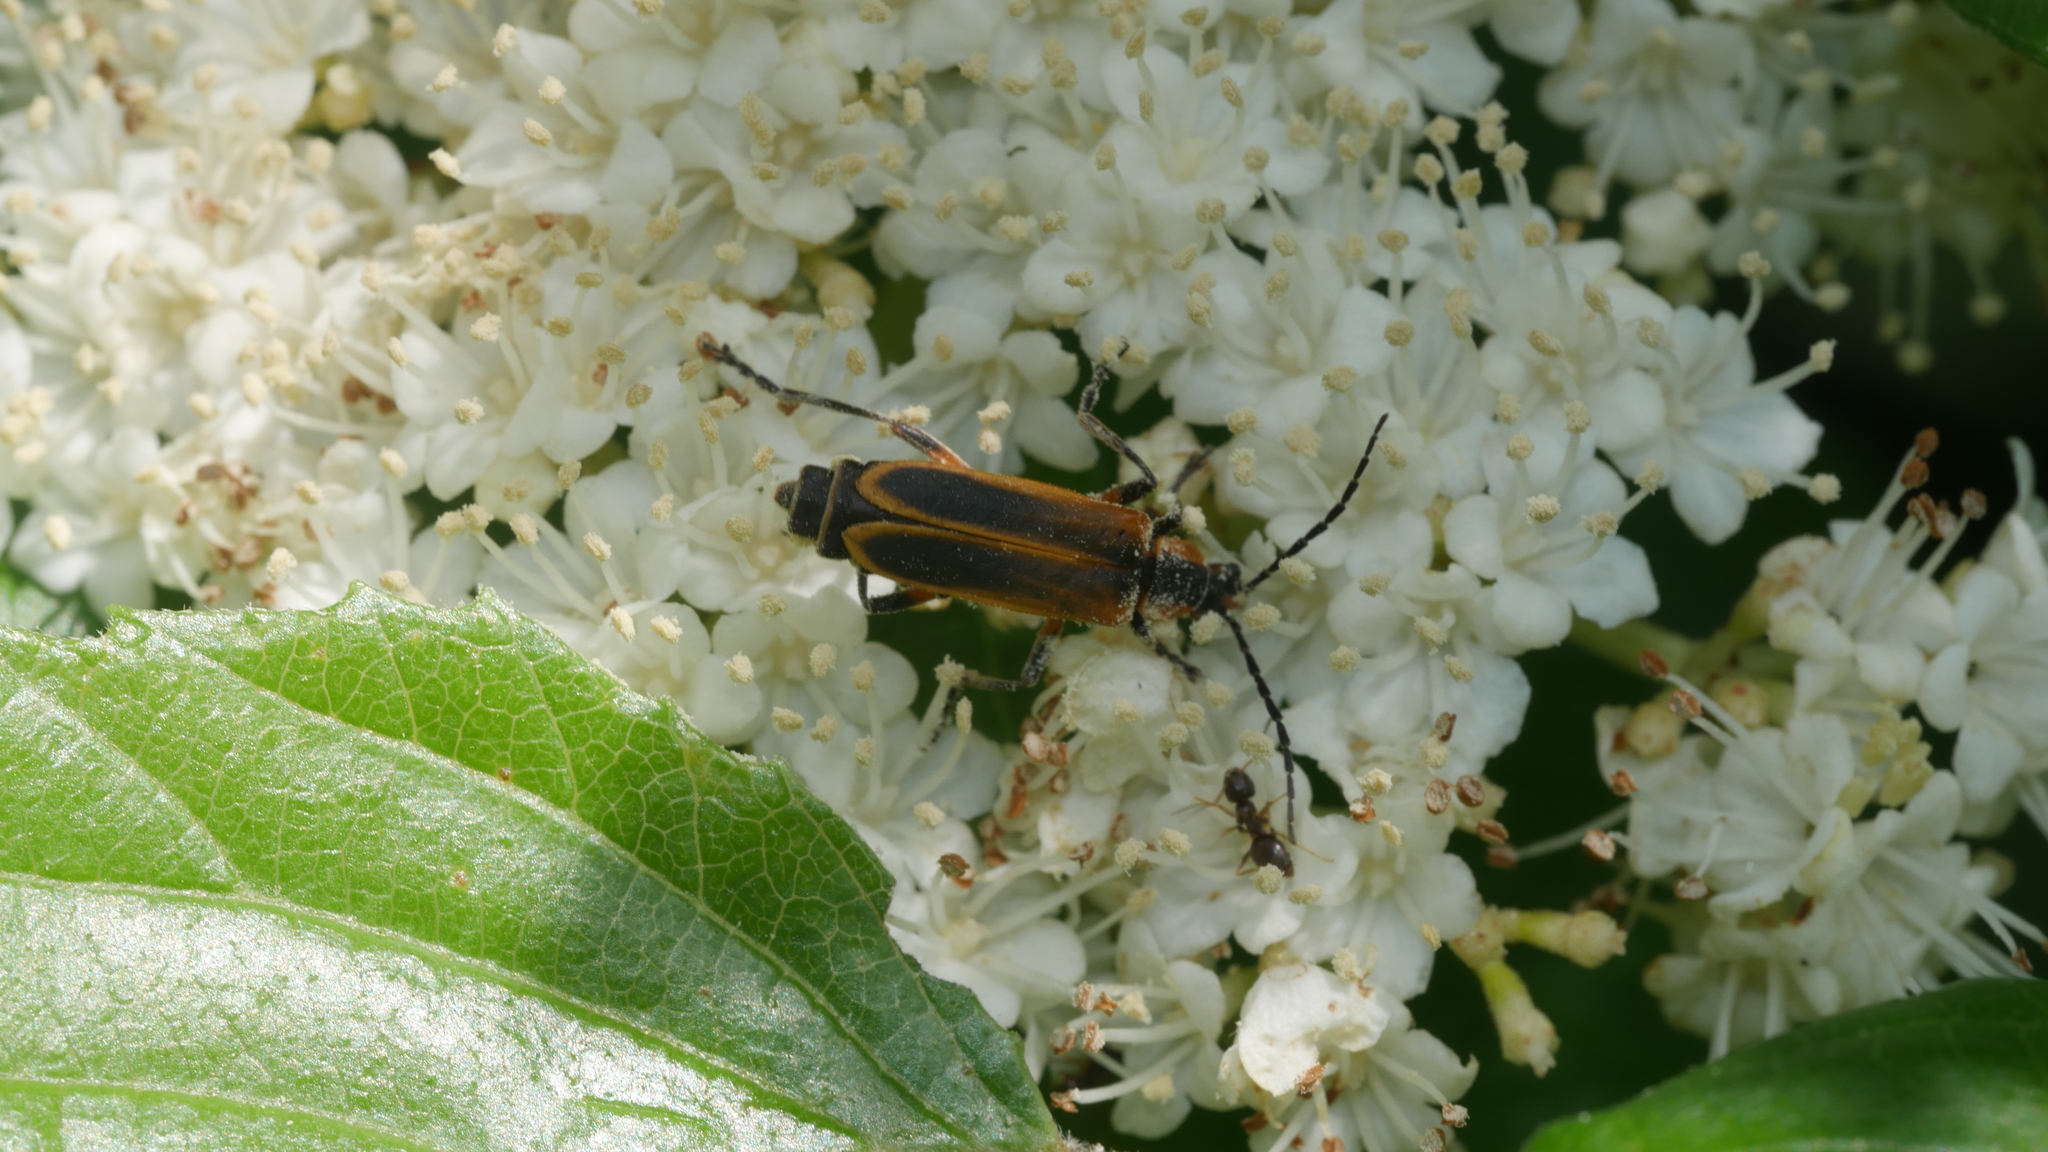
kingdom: Animalia
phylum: Arthropoda
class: Insecta
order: Coleoptera
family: Cantharidae
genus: Chauliognathus
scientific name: Chauliognathus marginatus
